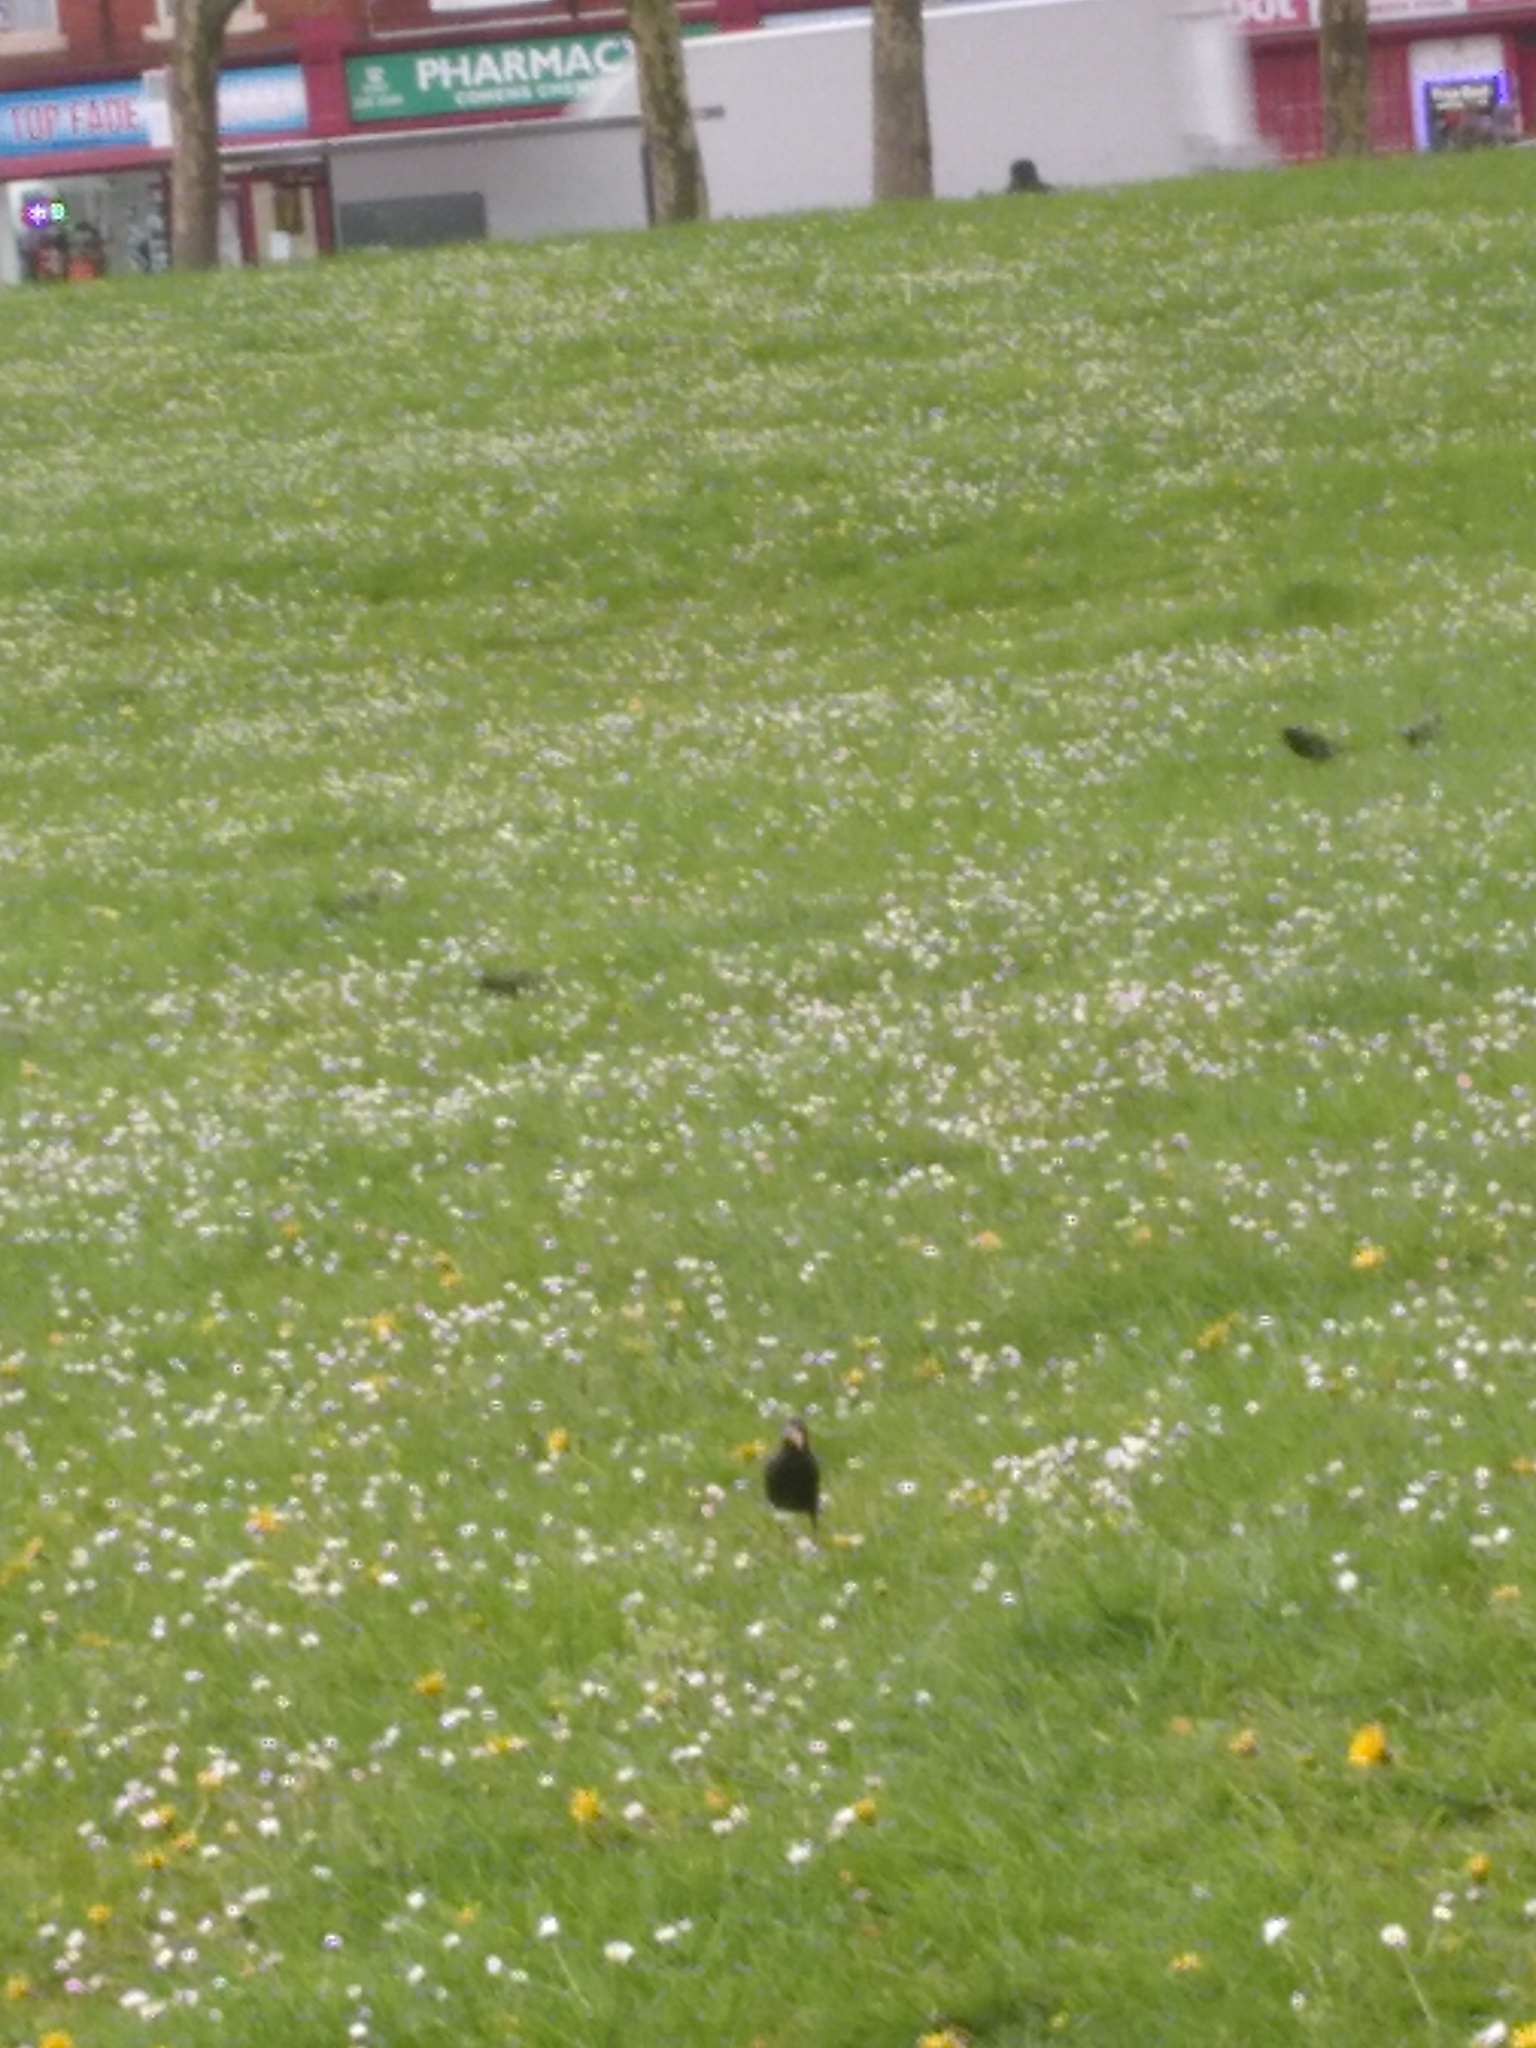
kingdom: Animalia
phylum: Chordata
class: Aves
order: Passeriformes
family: Sturnidae
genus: Sturnus
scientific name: Sturnus vulgaris
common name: Common starling
